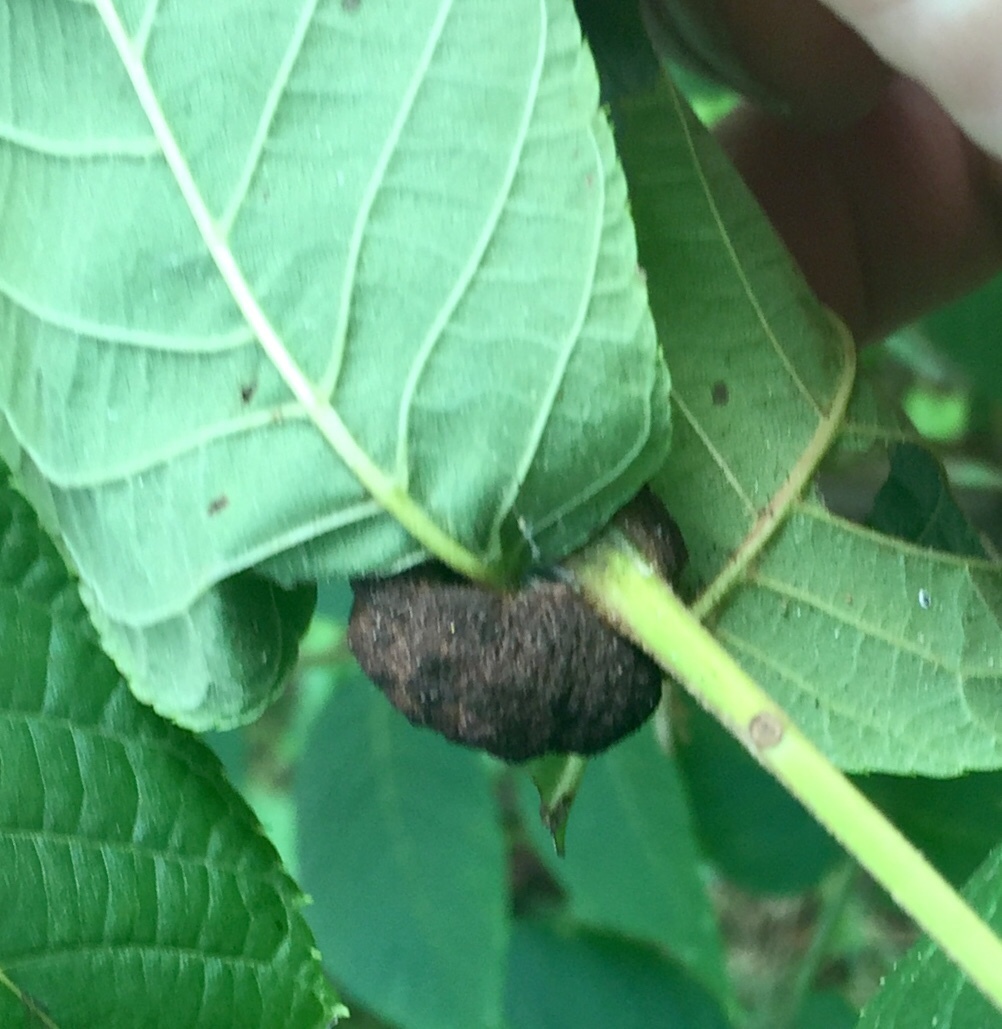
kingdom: Animalia
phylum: Arthropoda
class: Arachnida
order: Trombidiformes
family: Eriophyidae
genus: Aceria
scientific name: Aceria
